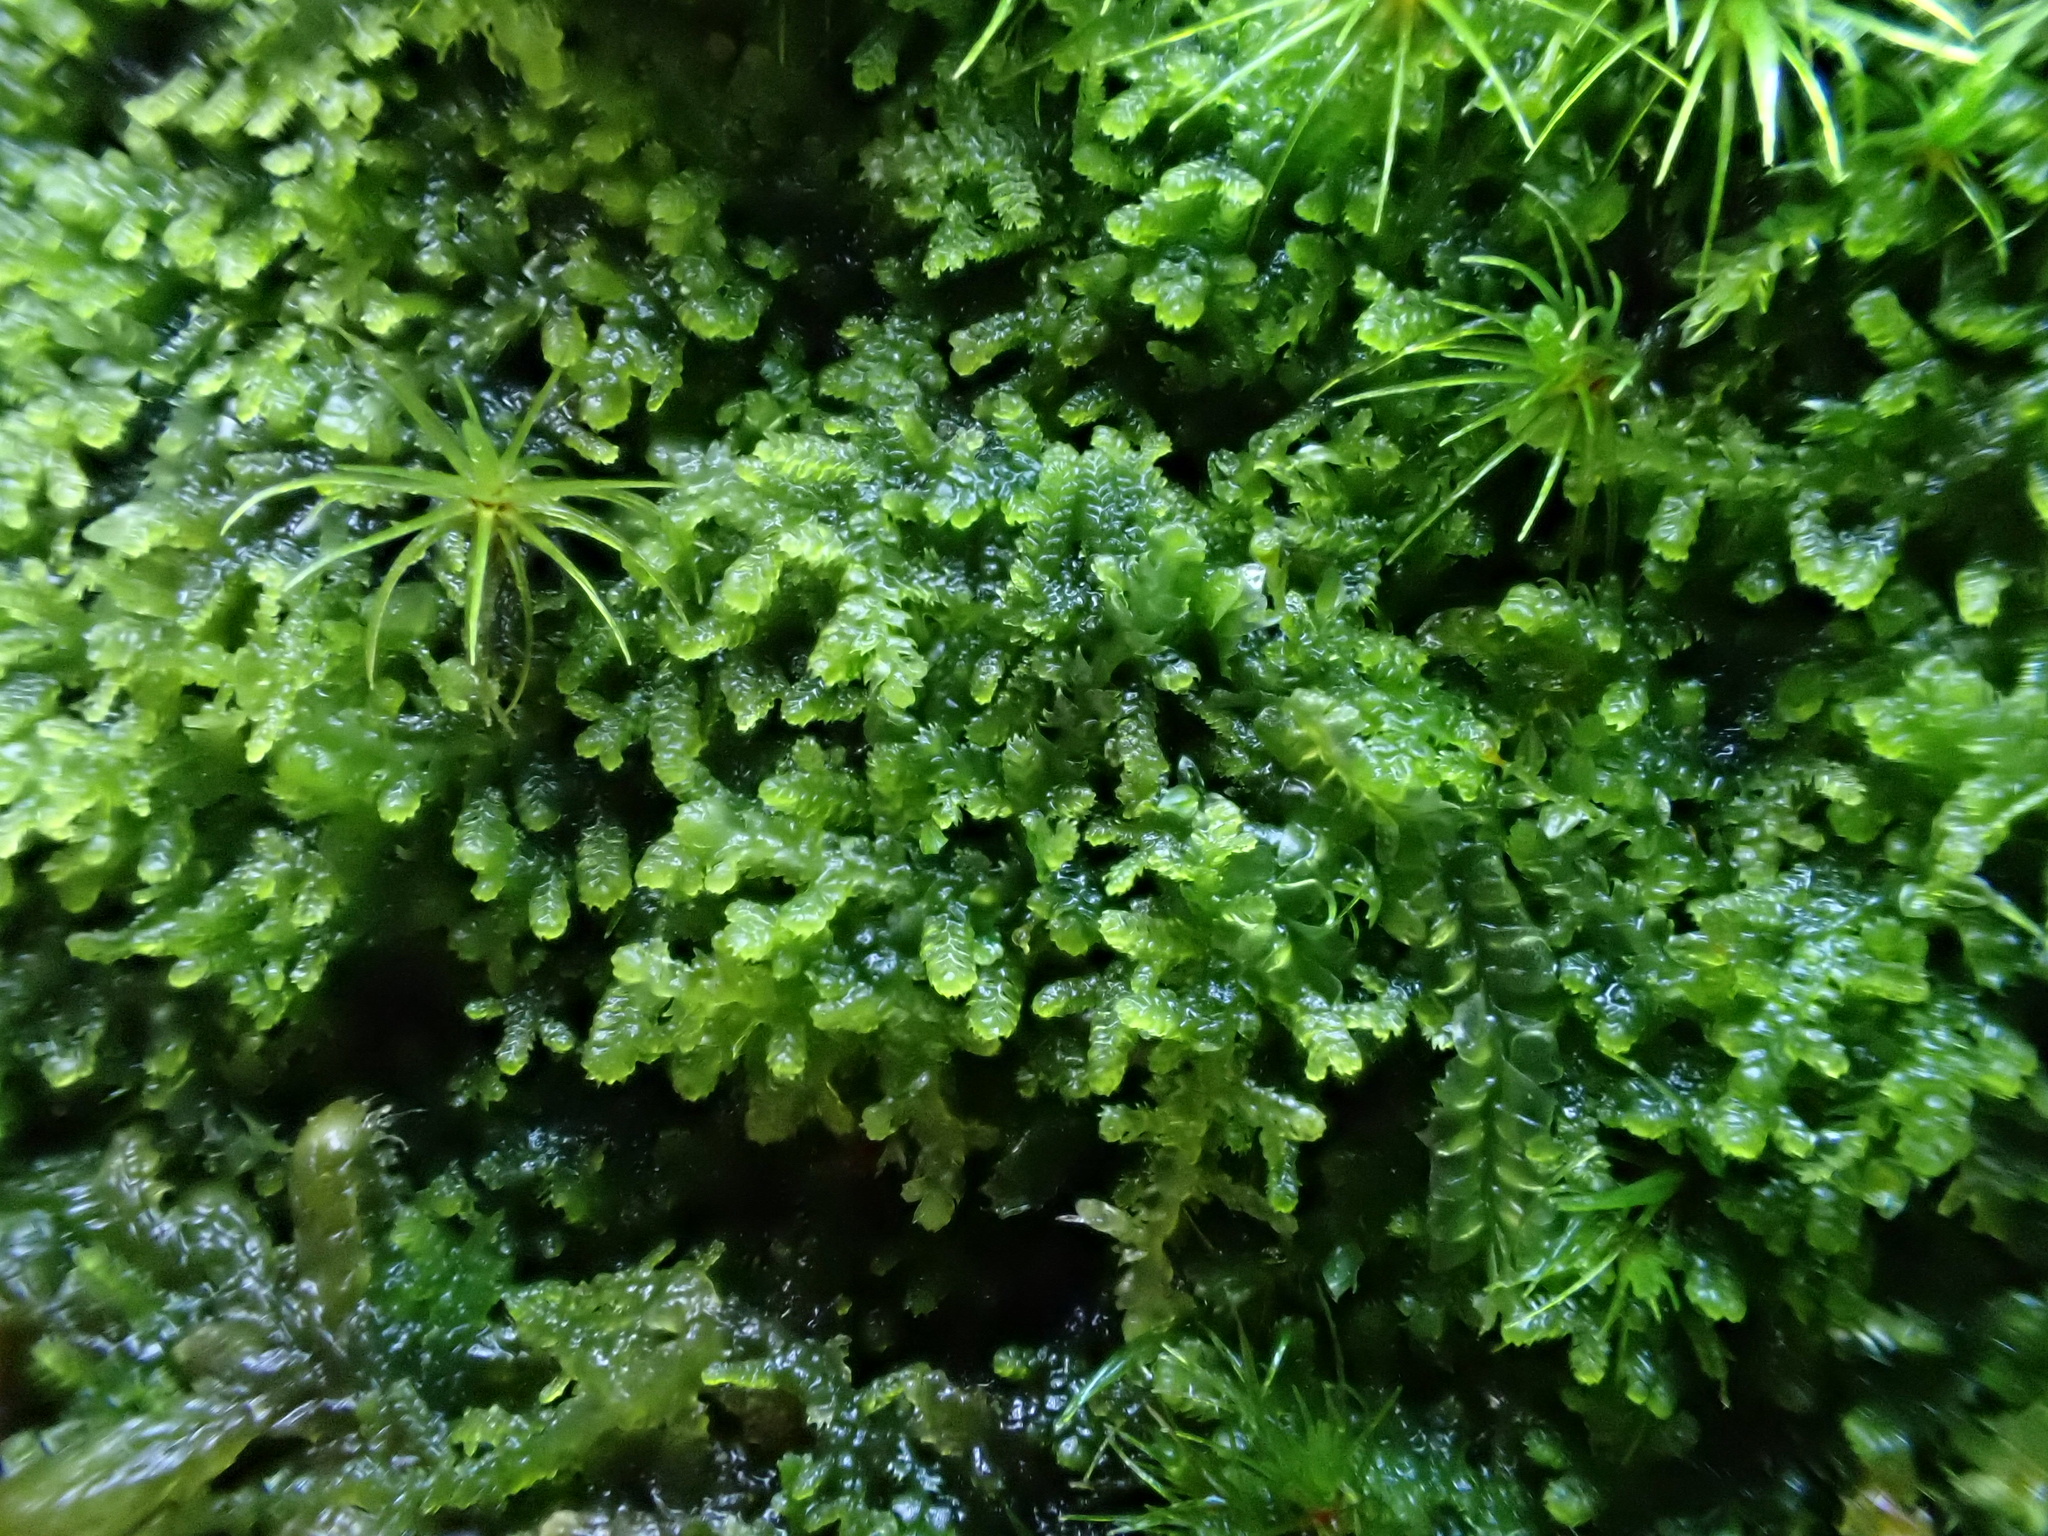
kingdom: Plantae
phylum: Marchantiophyta
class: Jungermanniopsida
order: Jungermanniales
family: Lepidoziaceae
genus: Lepidozia
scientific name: Lepidozia reptans
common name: Creeping fingerwort
